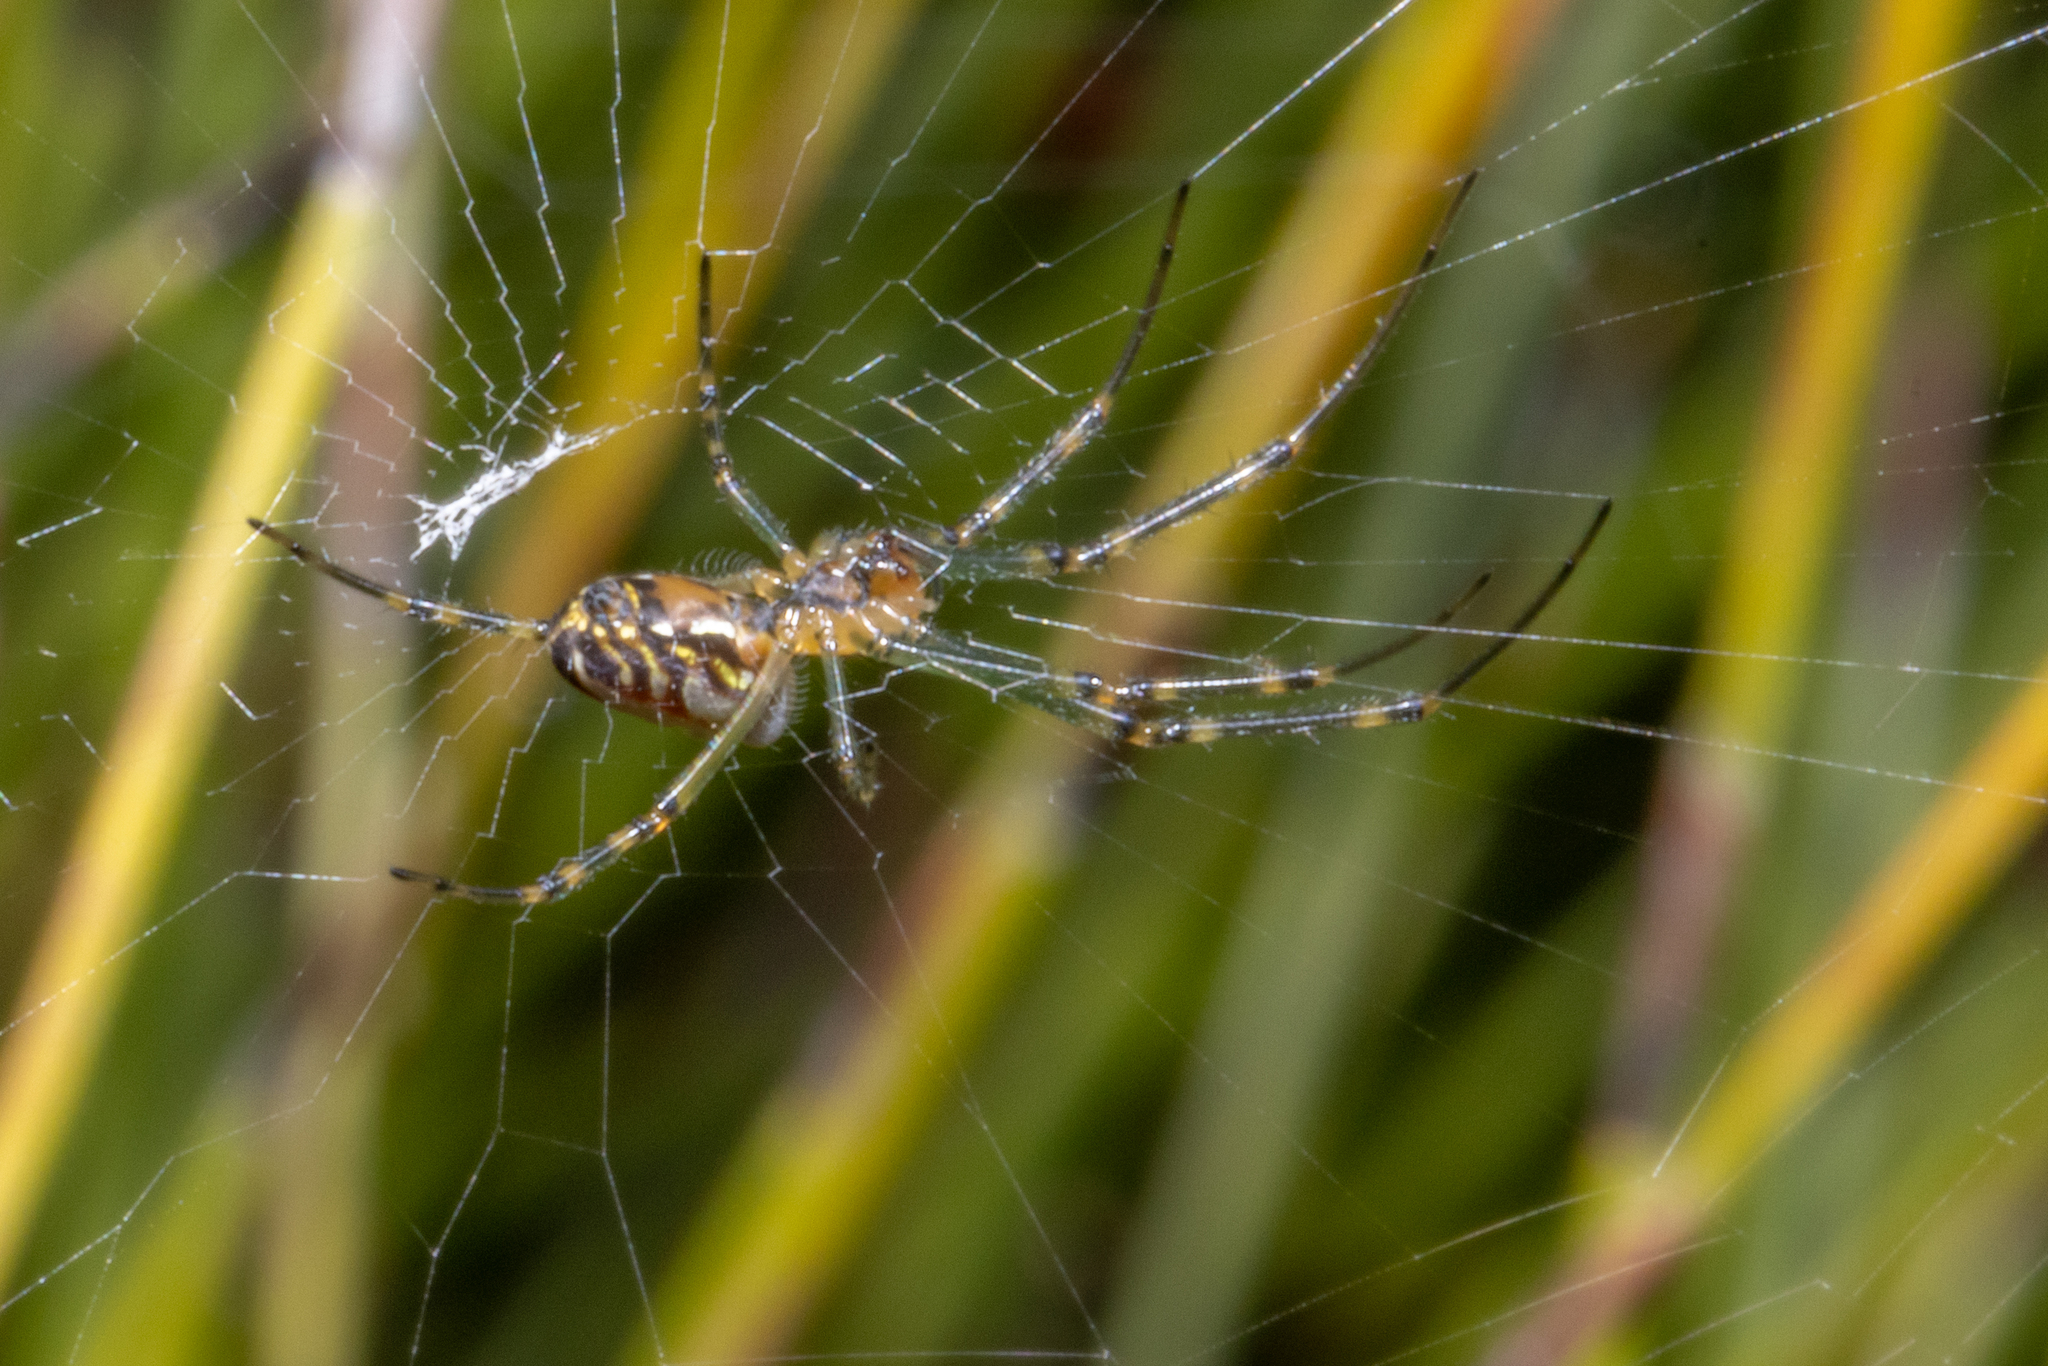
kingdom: Animalia
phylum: Arthropoda
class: Arachnida
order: Araneae
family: Tetragnathidae
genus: Leucauge
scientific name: Leucauge dromedaria
